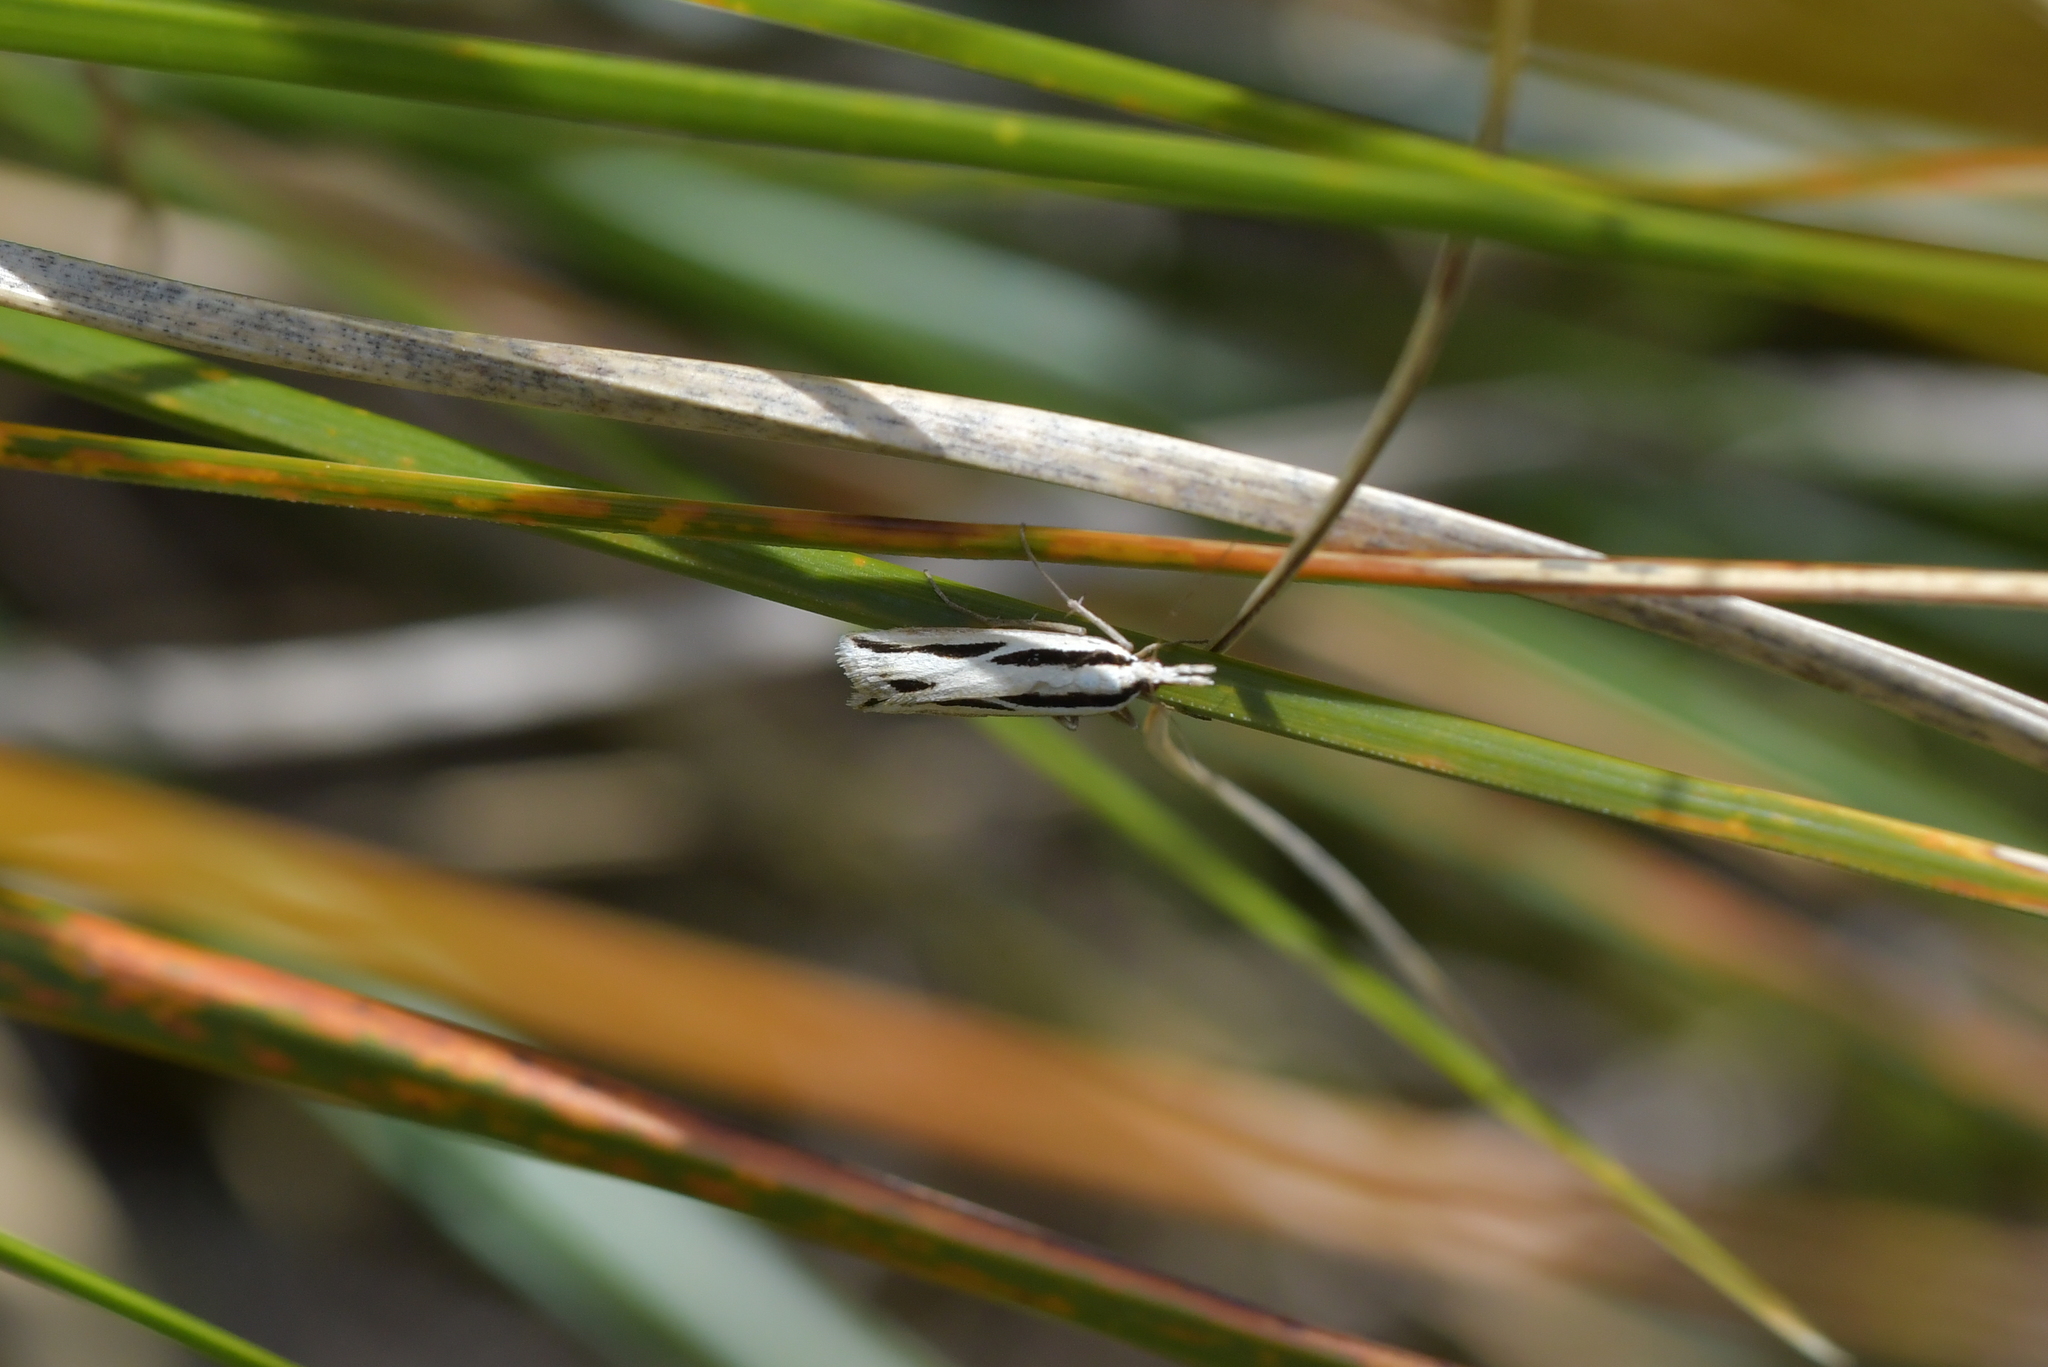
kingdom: Animalia
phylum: Arthropoda
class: Insecta
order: Lepidoptera
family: Crambidae
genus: Eudonia
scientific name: Eudonia trivirgata
